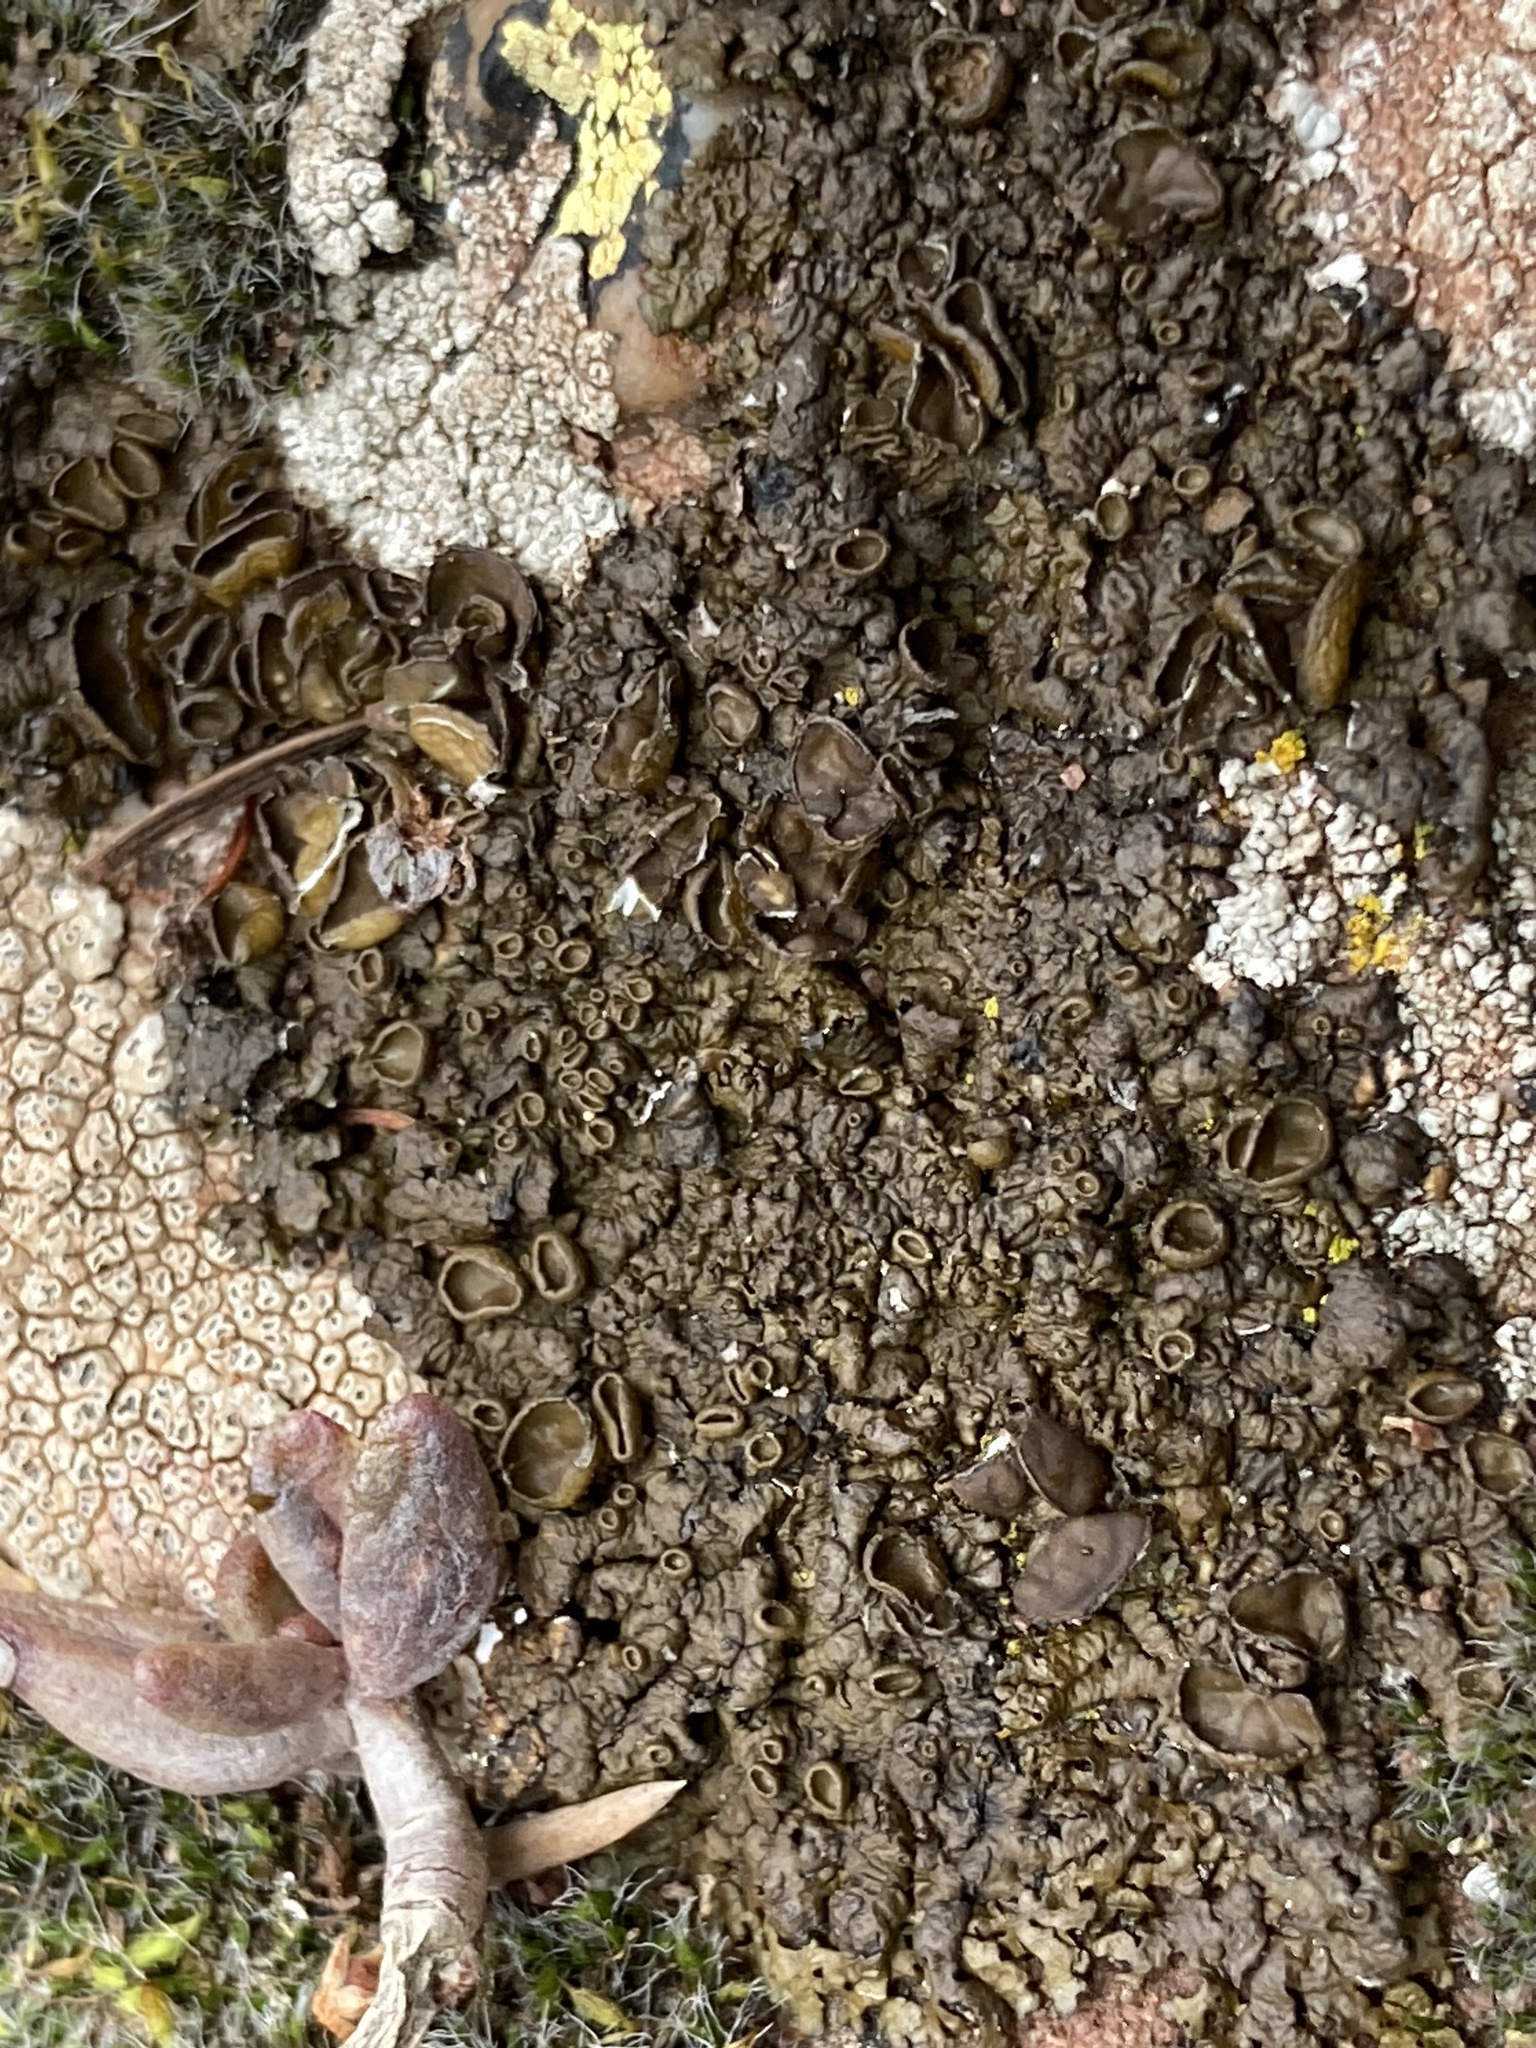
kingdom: Fungi
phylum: Ascomycota
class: Lecanoromycetes
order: Lecanorales
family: Parmeliaceae
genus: Xanthoparmelia
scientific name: Xanthoparmelia pulla
